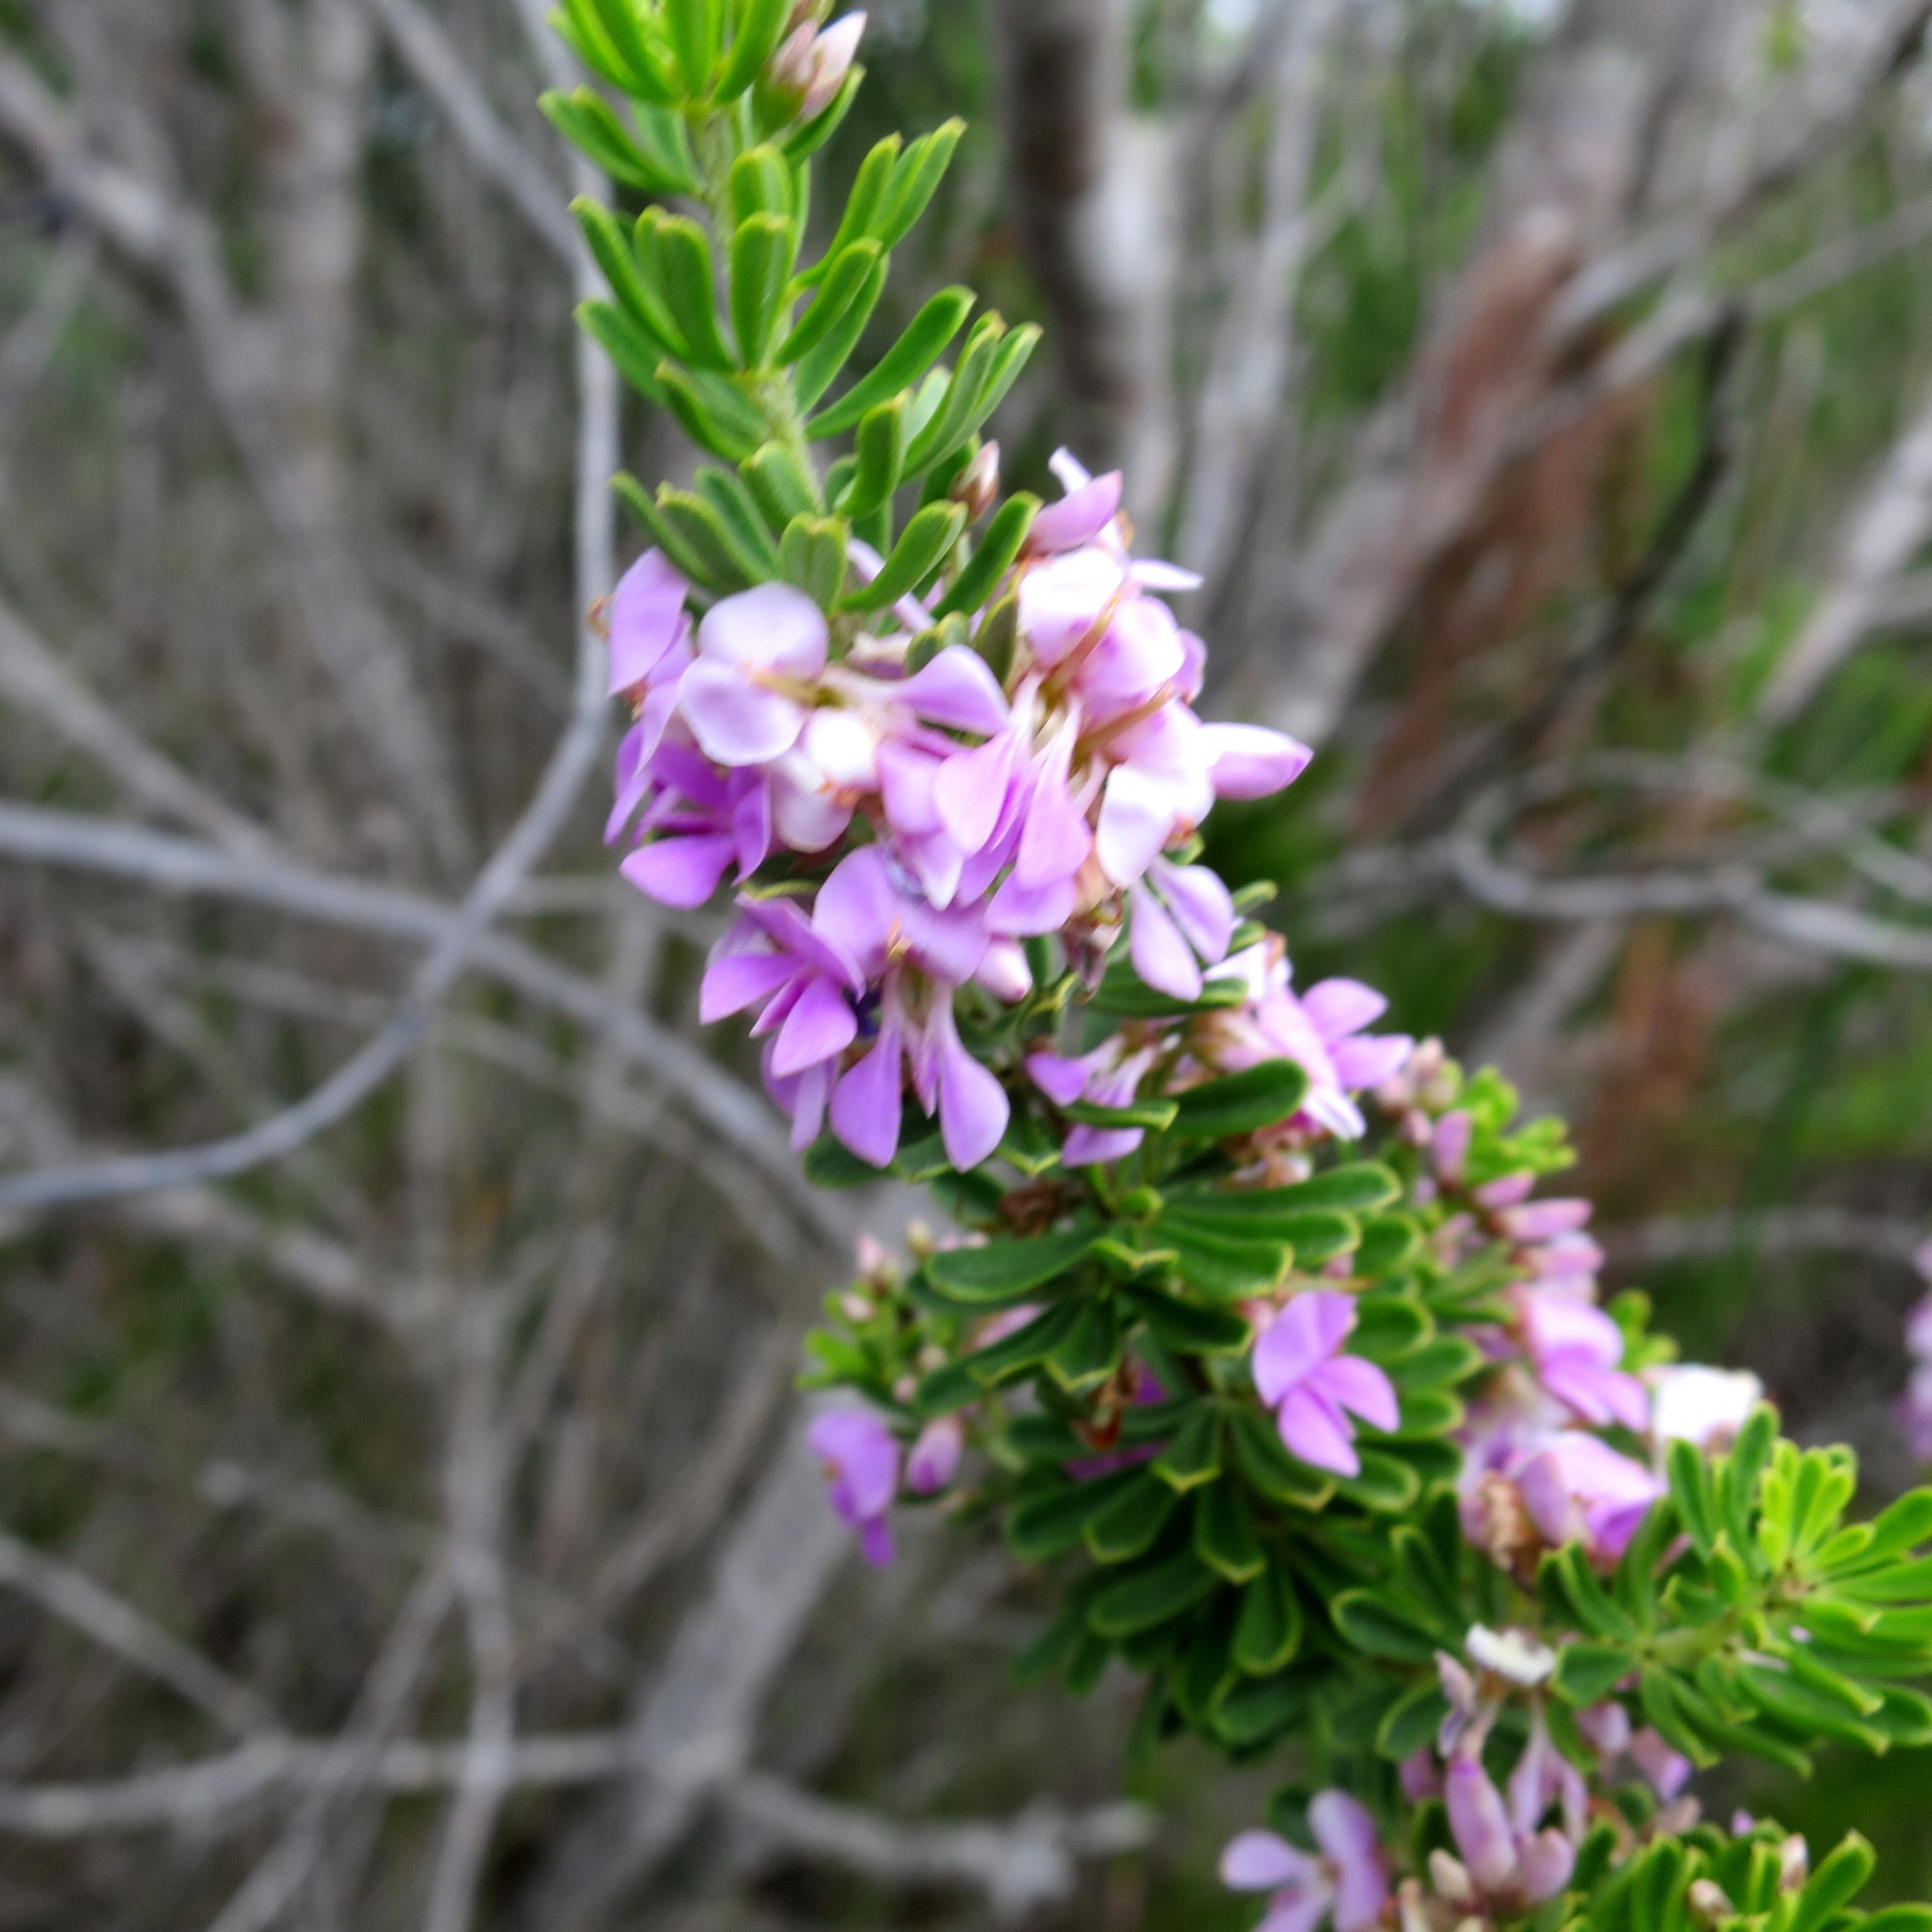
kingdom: Plantae
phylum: Tracheophyta
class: Magnoliopsida
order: Fabales
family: Fabaceae
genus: Indigofera
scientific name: Indigofera flabellata
